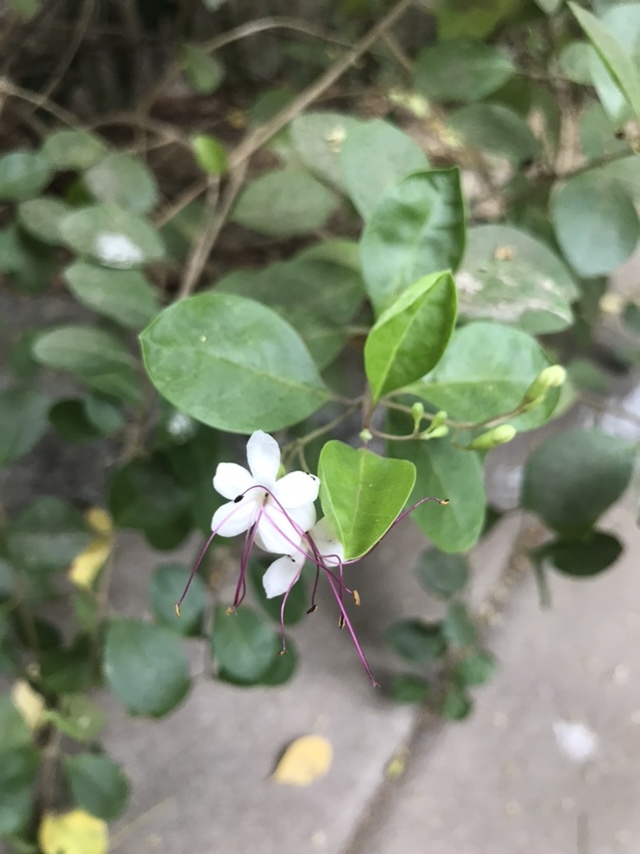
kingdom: Plantae
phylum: Tracheophyta
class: Magnoliopsida
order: Lamiales
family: Lamiaceae
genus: Volkameria
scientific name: Volkameria inermis
